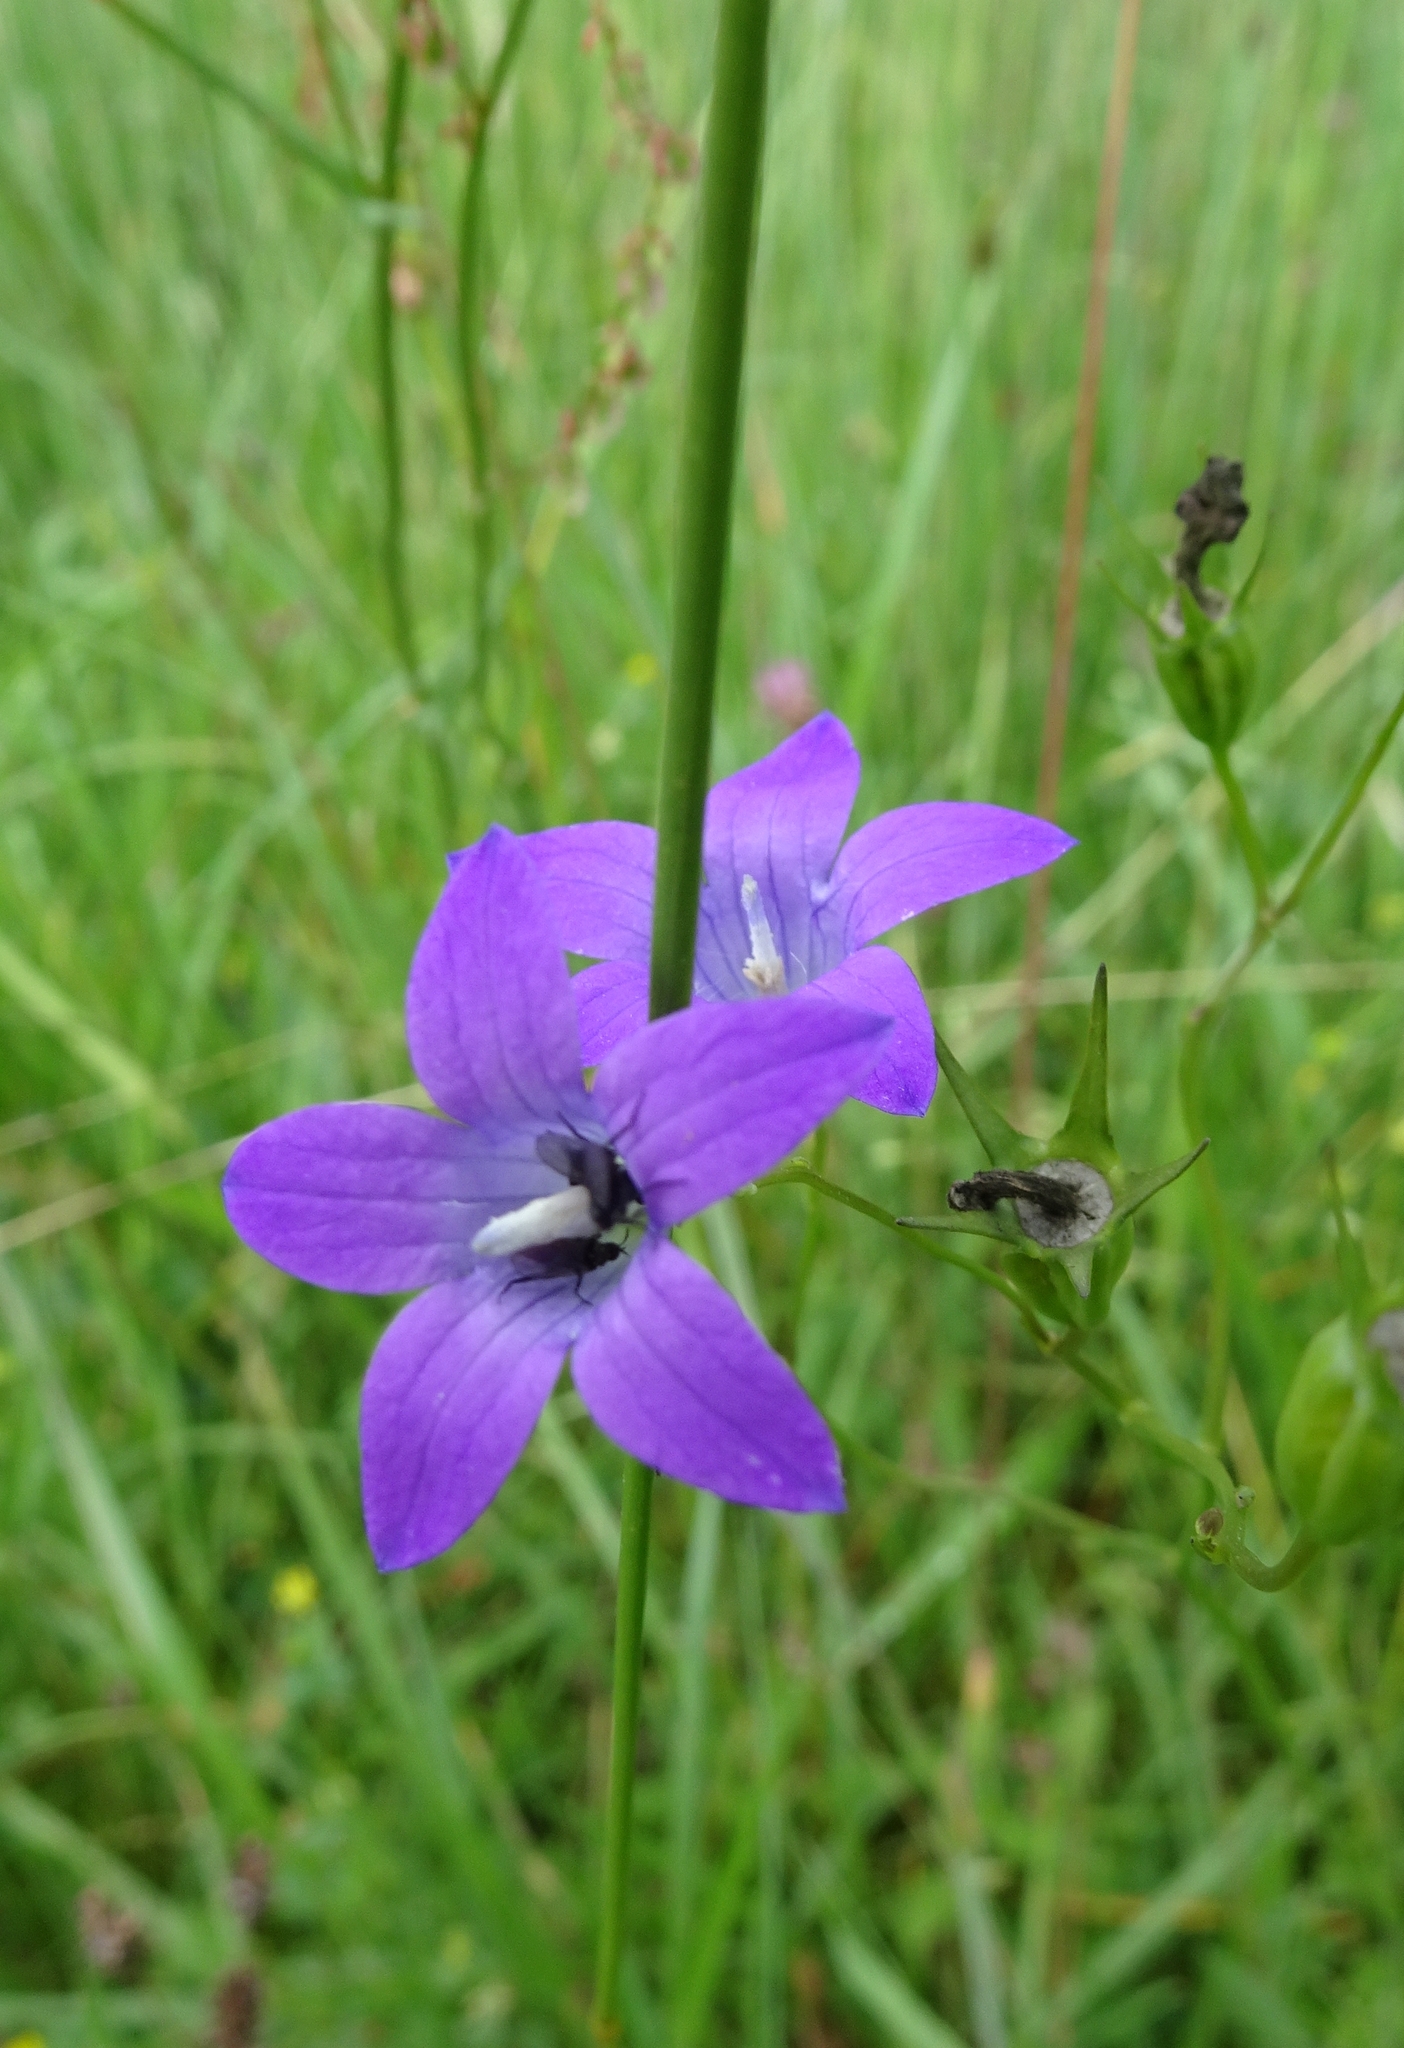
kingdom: Plantae
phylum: Tracheophyta
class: Magnoliopsida
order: Asterales
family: Campanulaceae
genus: Campanula
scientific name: Campanula patula
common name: Spreading bellflower
